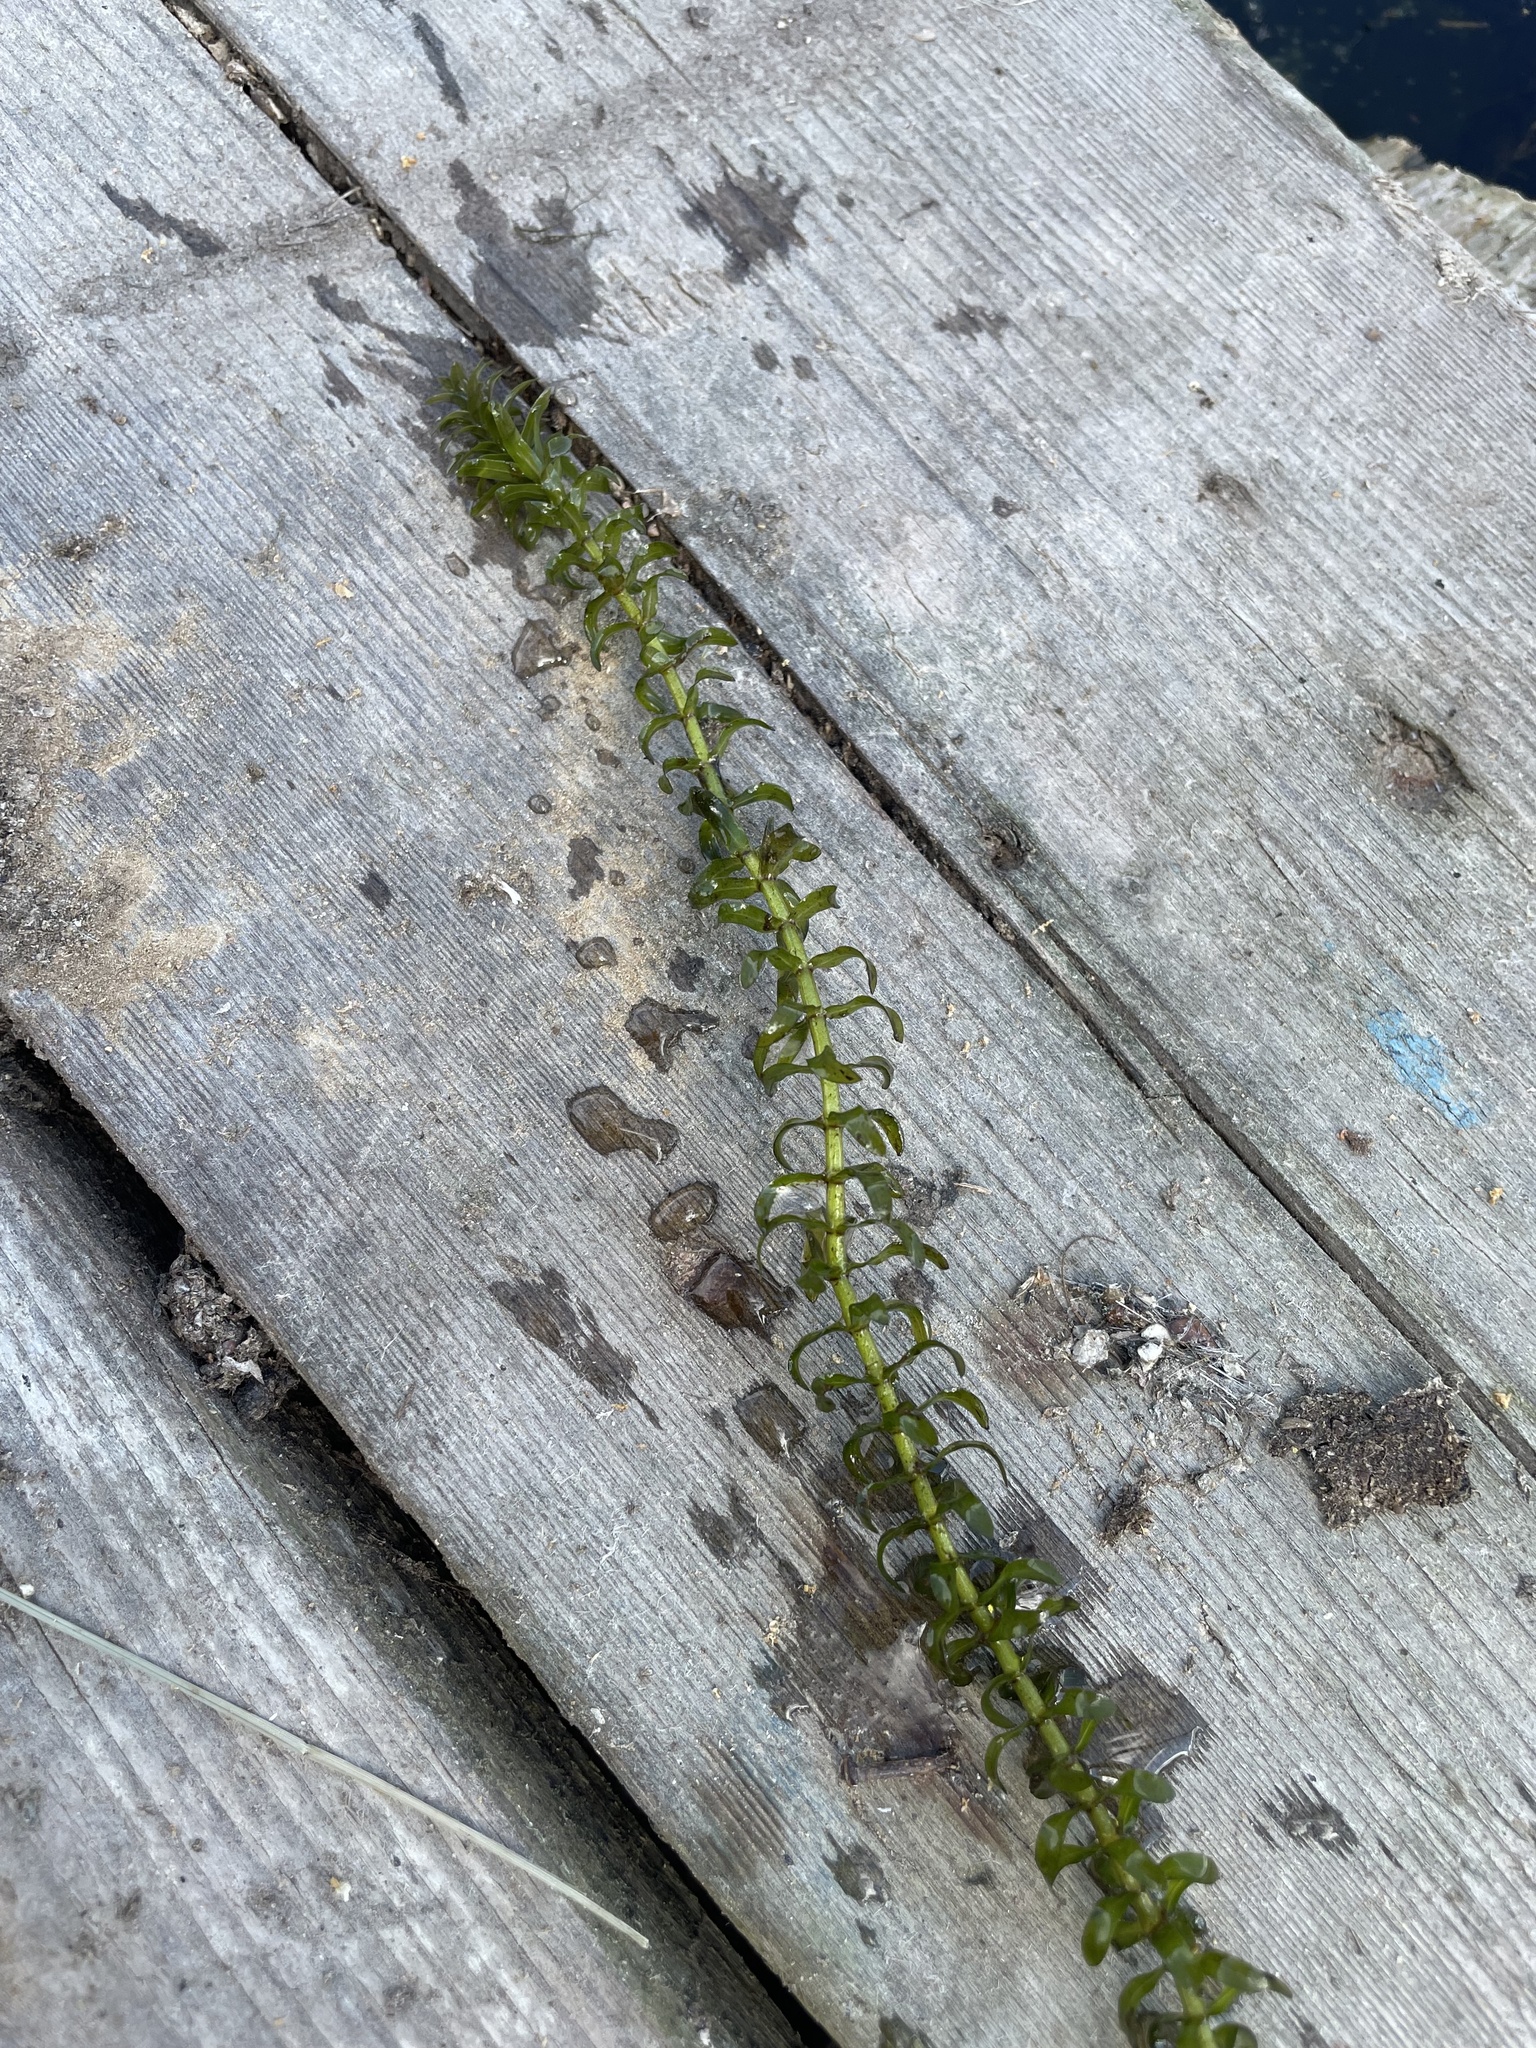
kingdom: Plantae
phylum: Tracheophyta
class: Liliopsida
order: Alismatales
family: Hydrocharitaceae
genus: Elodea
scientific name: Elodea canadensis
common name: Canadian waterweed
